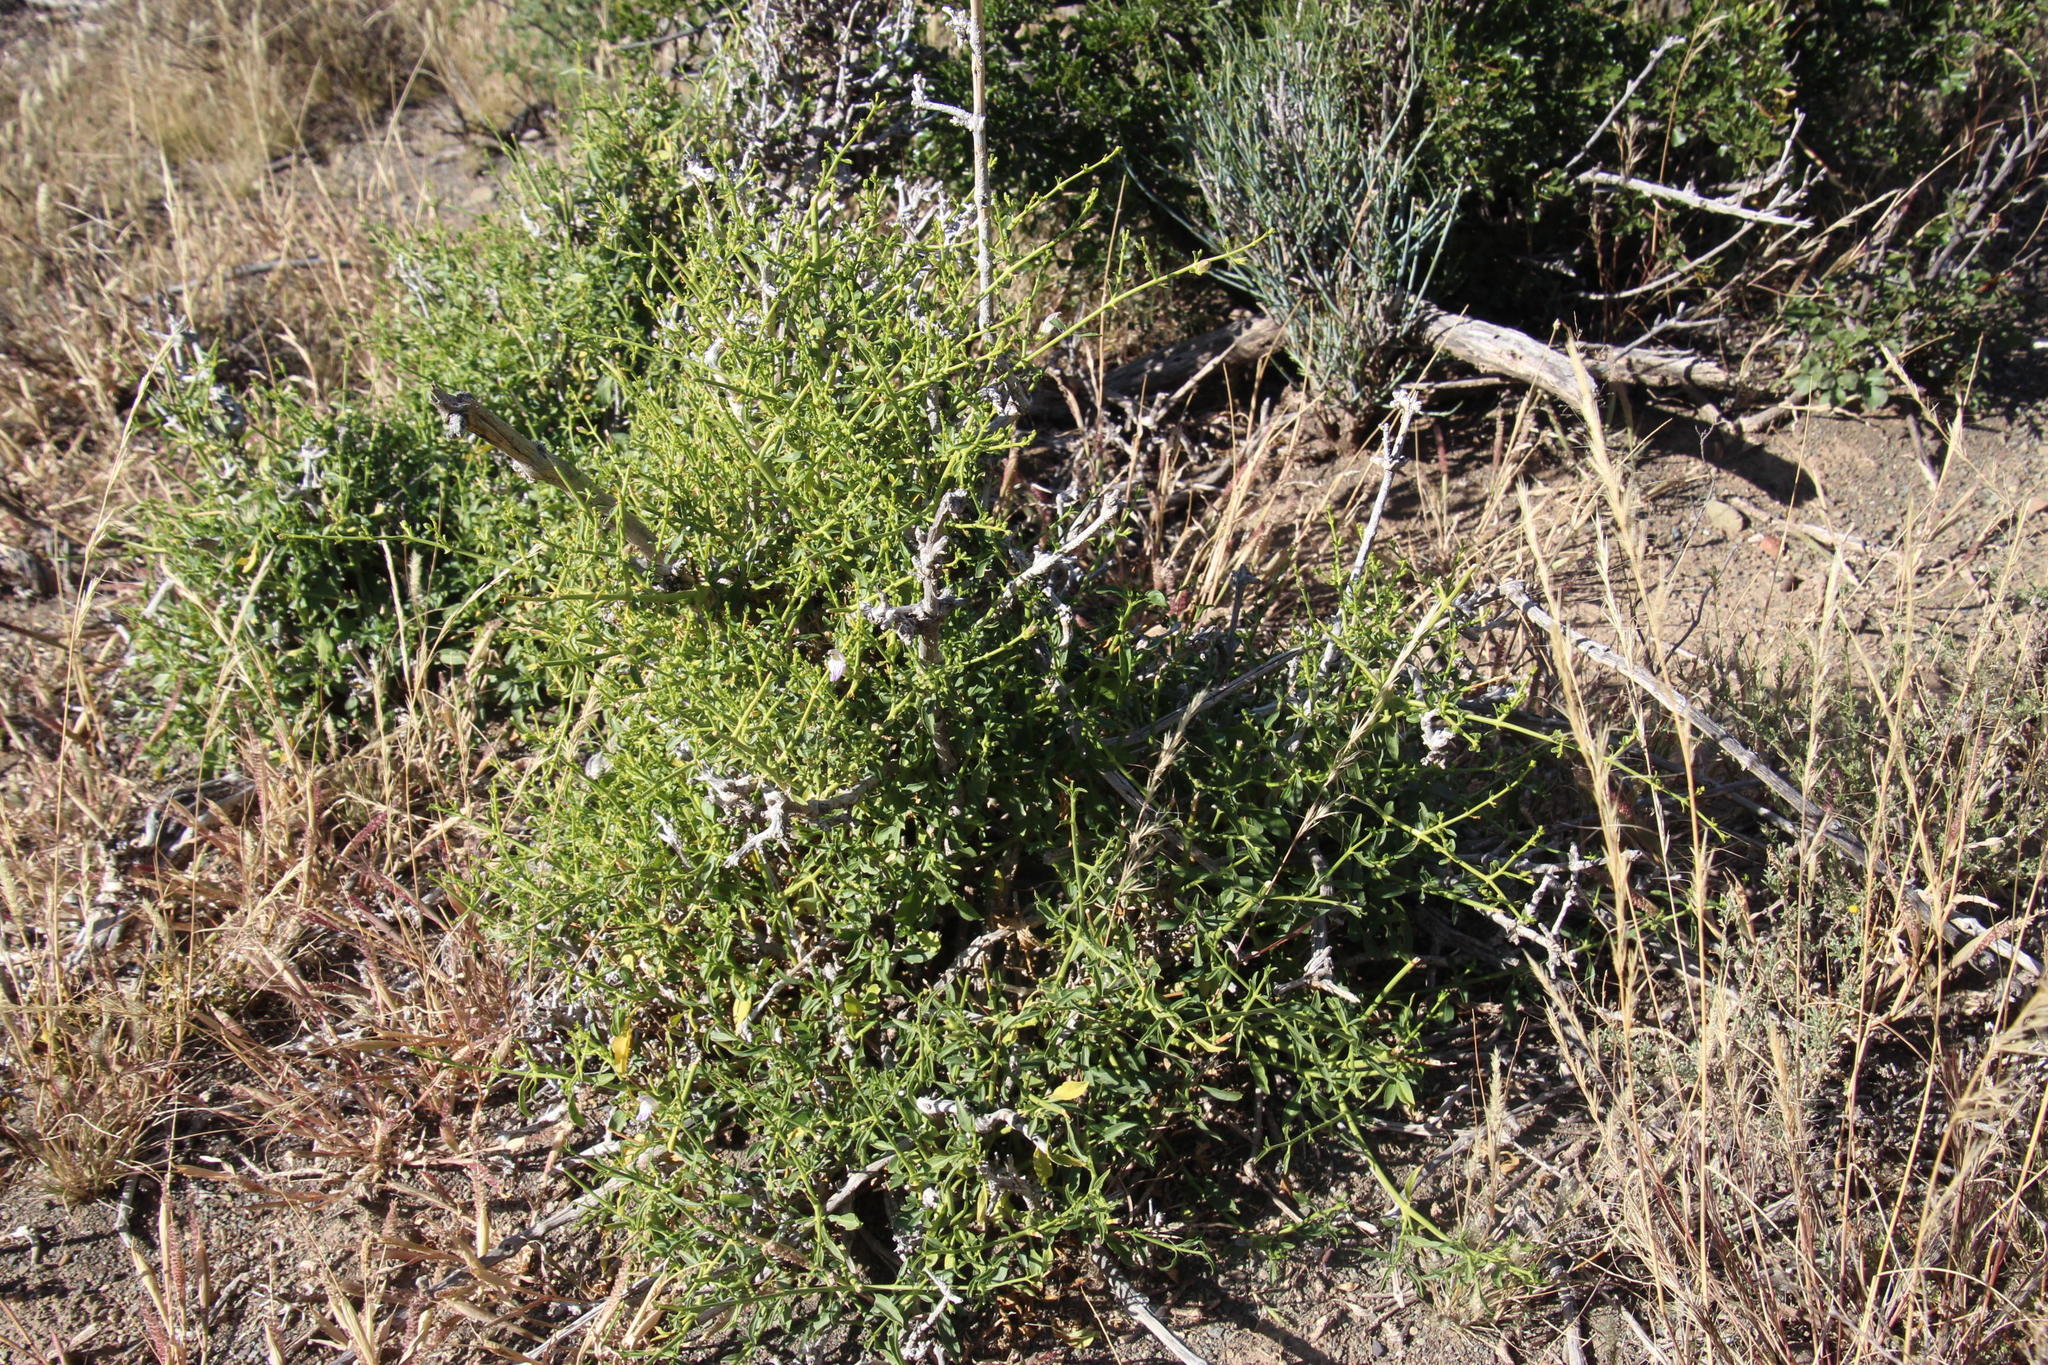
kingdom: Plantae
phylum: Tracheophyta
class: Magnoliopsida
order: Lamiales
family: Acanthaceae
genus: Pogonospermum
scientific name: Pogonospermum
